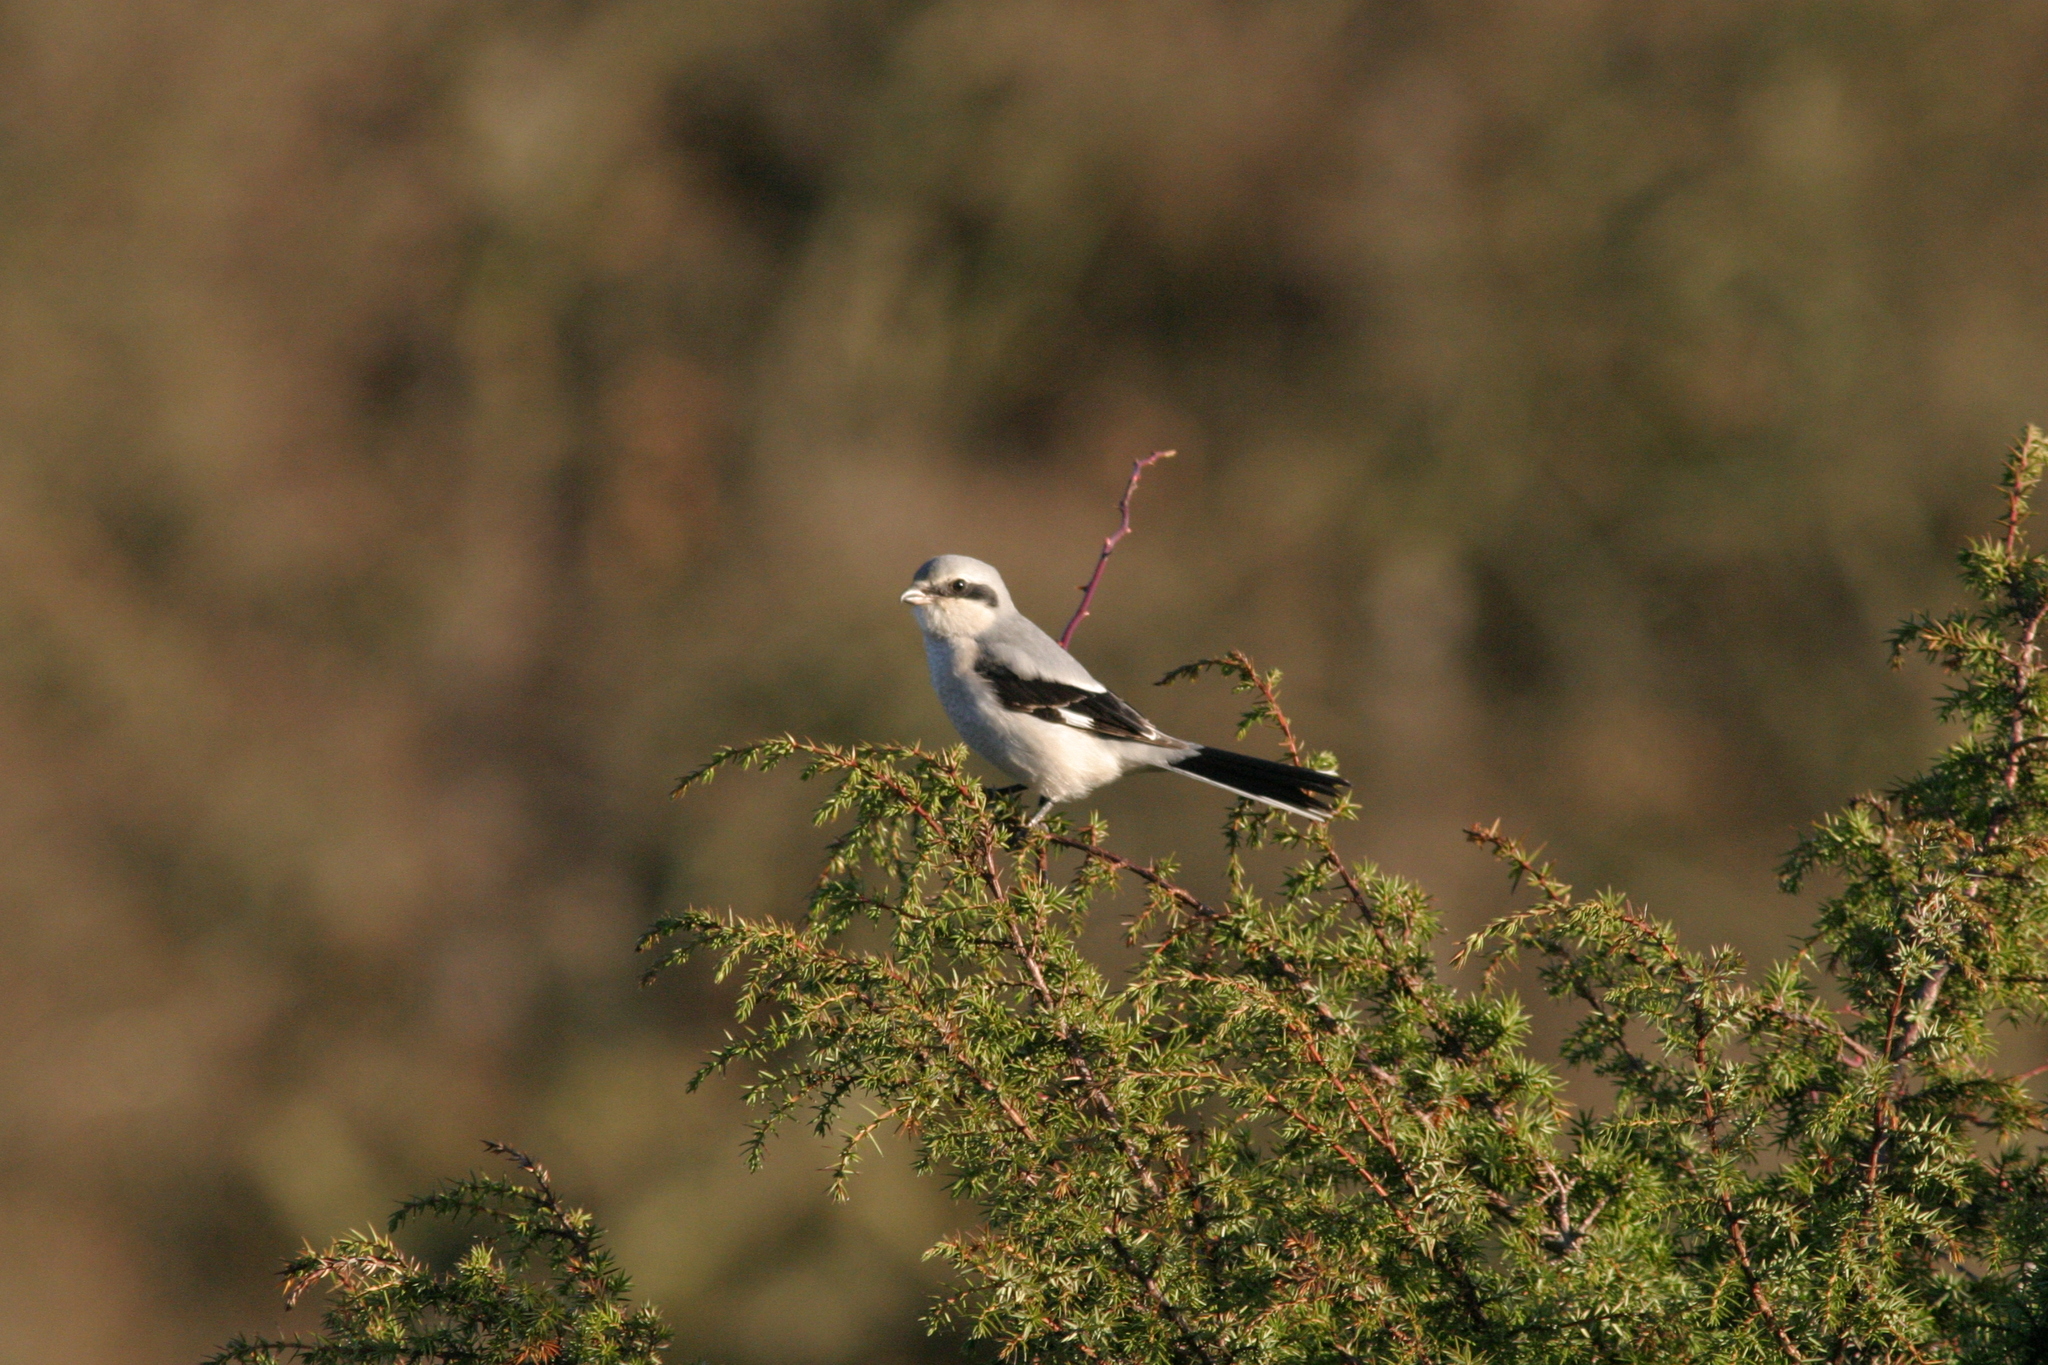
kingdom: Animalia
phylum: Chordata
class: Aves
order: Passeriformes
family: Laniidae
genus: Lanius
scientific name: Lanius excubitor
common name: Great grey shrike
